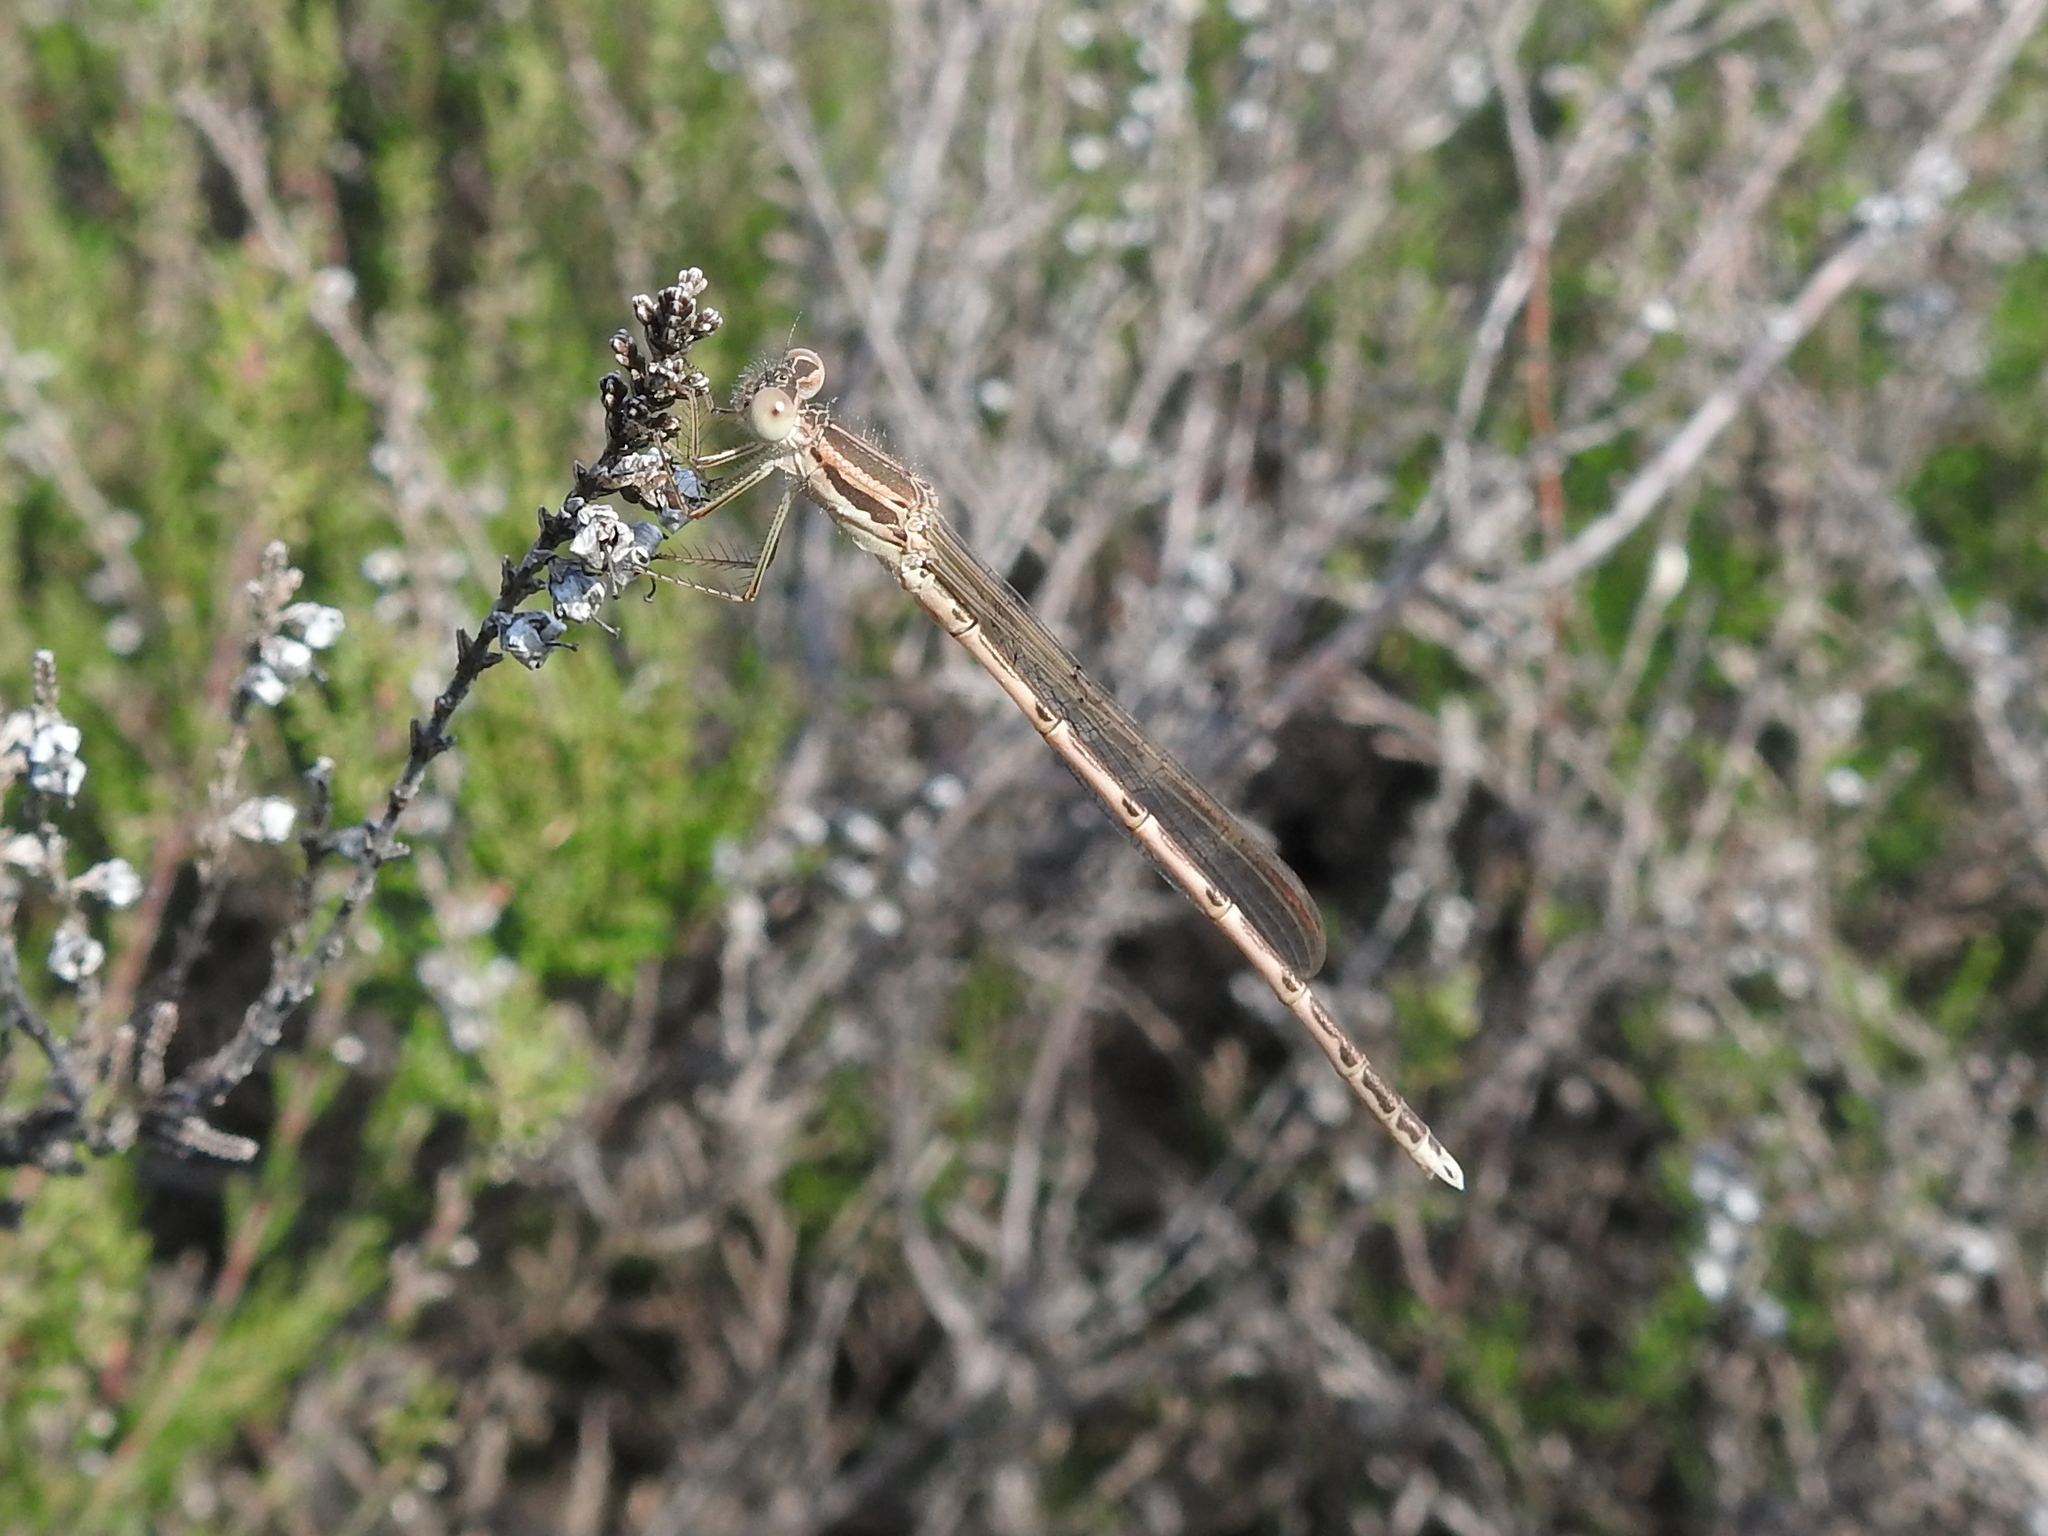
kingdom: Animalia
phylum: Arthropoda
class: Insecta
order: Odonata
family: Lestidae
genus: Sympecma
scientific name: Sympecma fusca
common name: Common winter damsel
